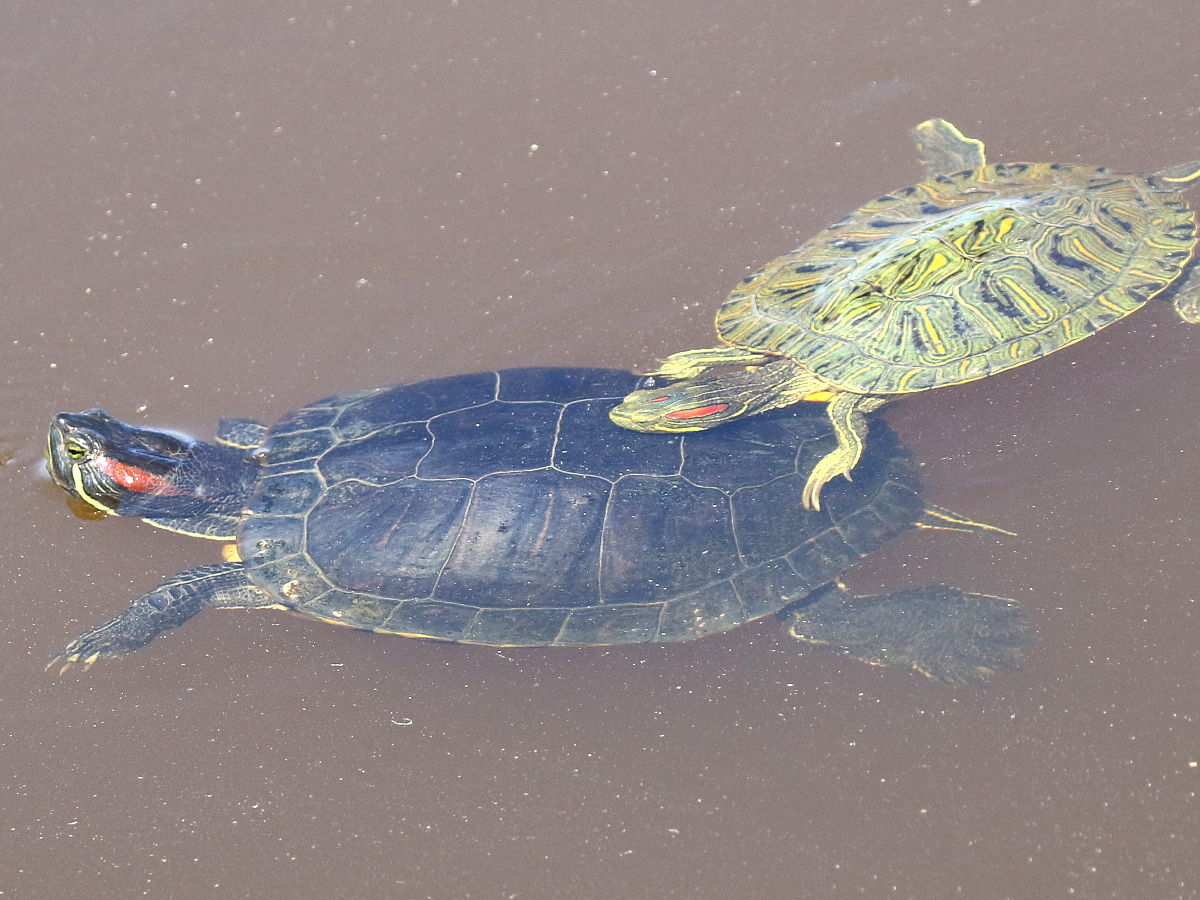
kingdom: Animalia
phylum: Chordata
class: Testudines
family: Emydidae
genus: Trachemys
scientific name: Trachemys scripta
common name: Slider
